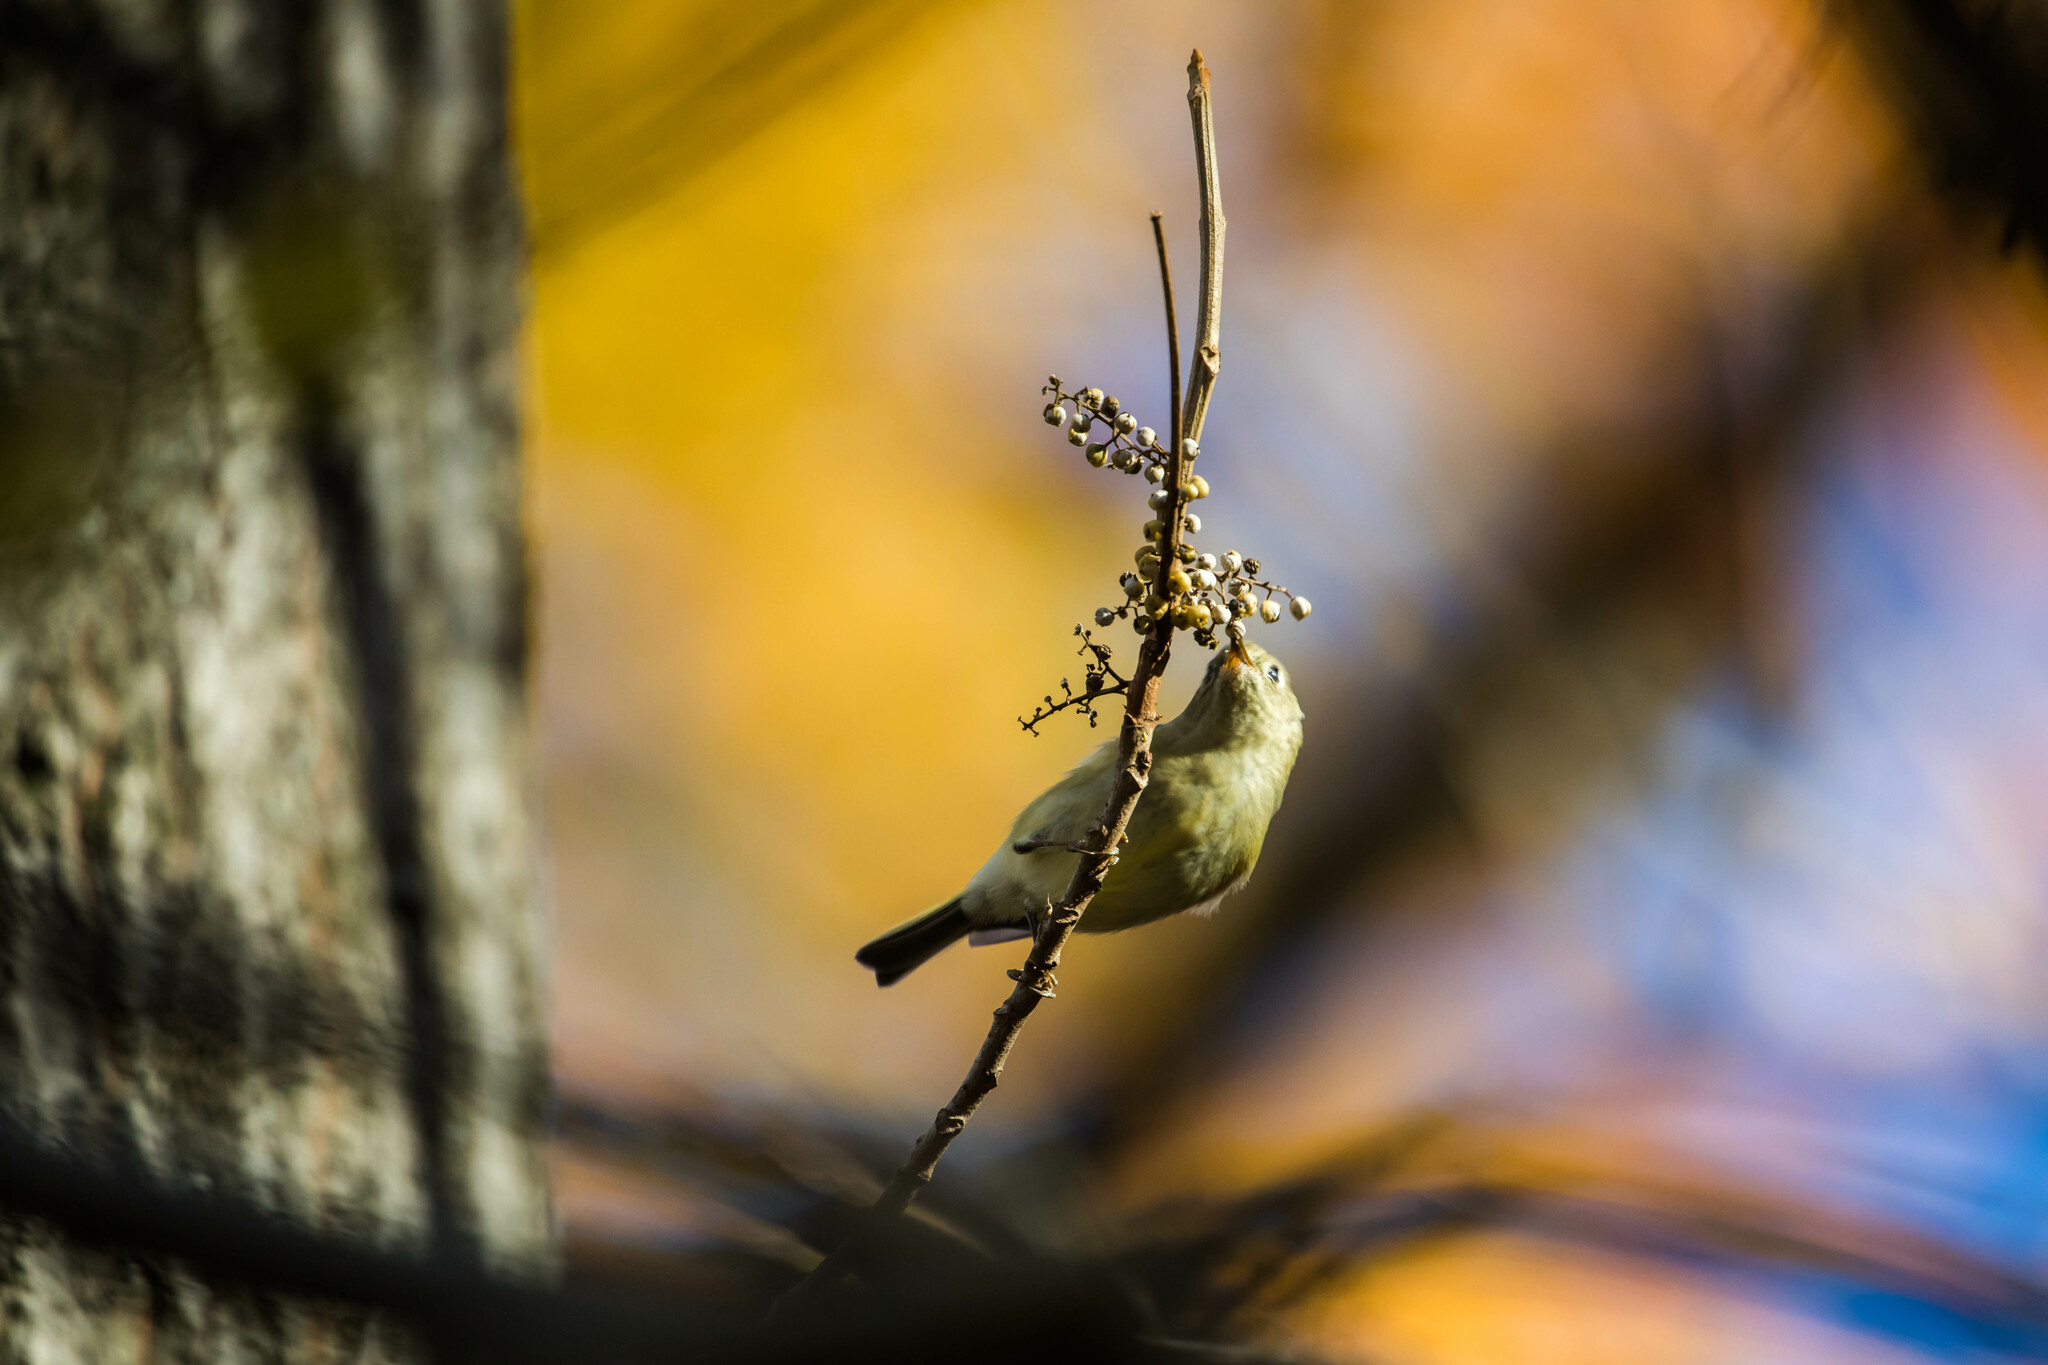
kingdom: Animalia
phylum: Chordata
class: Aves
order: Passeriformes
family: Regulidae
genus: Regulus
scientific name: Regulus calendula
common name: Ruby-crowned kinglet
